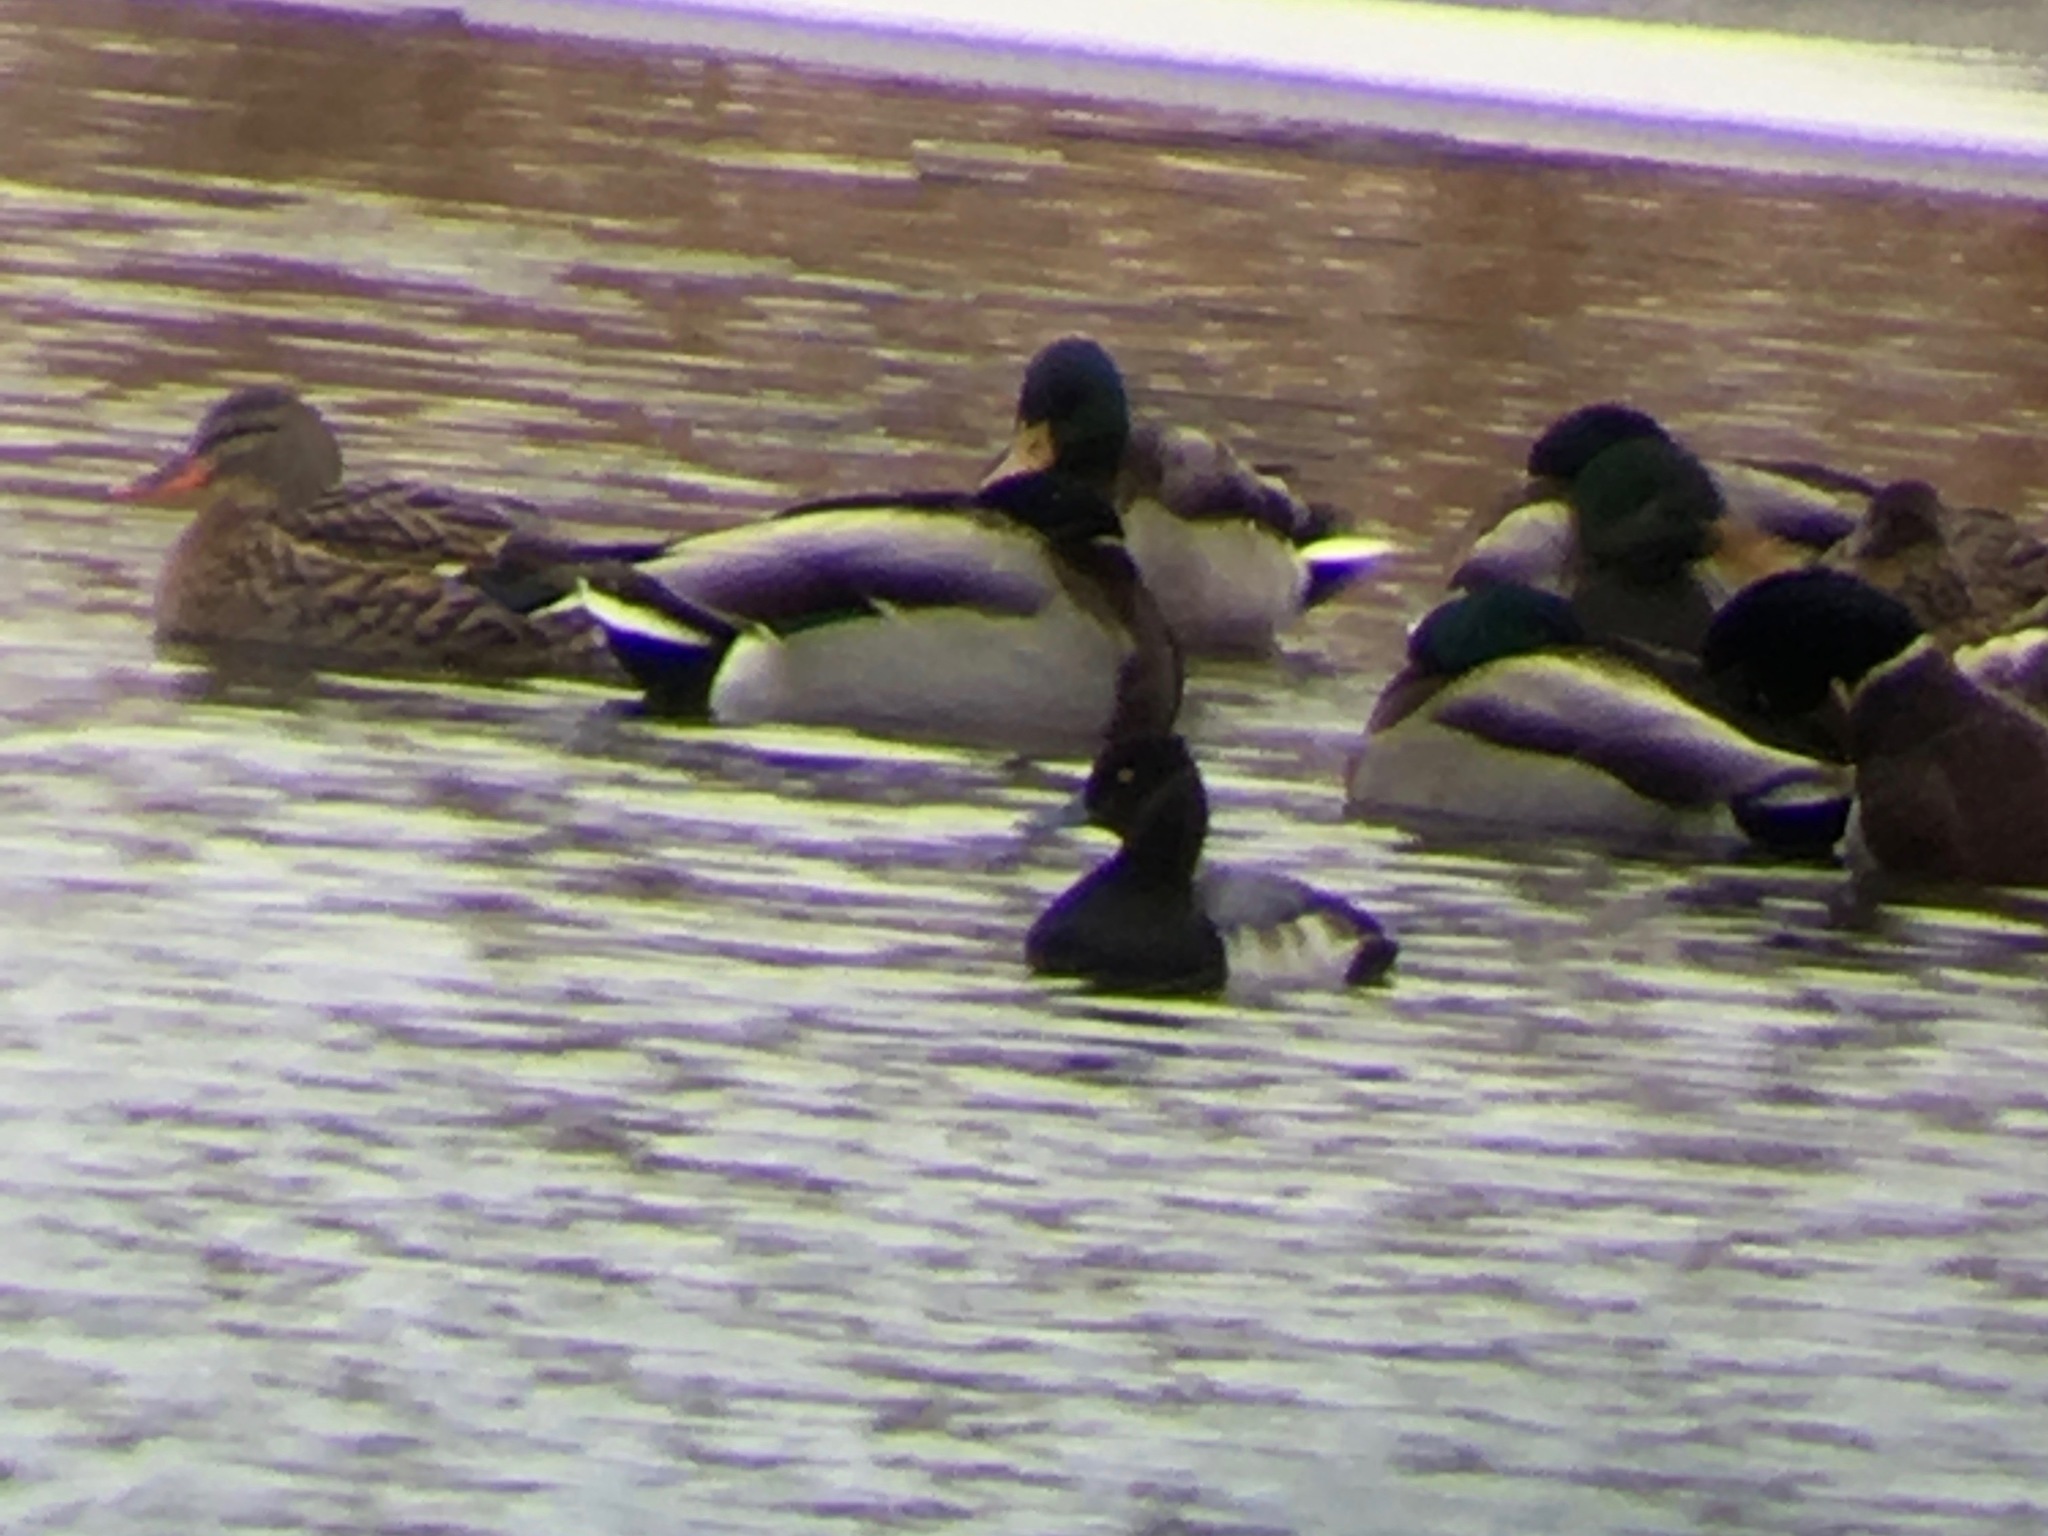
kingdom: Animalia
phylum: Chordata
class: Aves
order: Anseriformes
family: Anatidae
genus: Aythya
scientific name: Aythya affinis
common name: Lesser scaup
